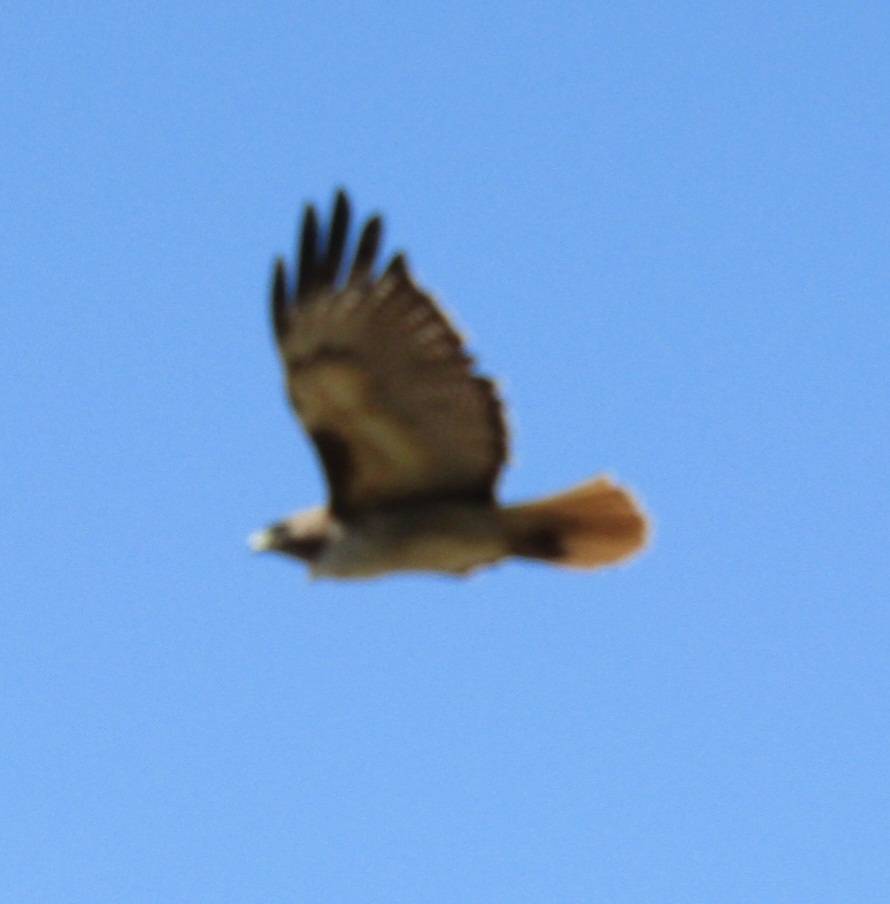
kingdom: Animalia
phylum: Chordata
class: Aves
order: Accipitriformes
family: Accipitridae
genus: Buteo
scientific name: Buteo jamaicensis
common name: Red-tailed hawk
